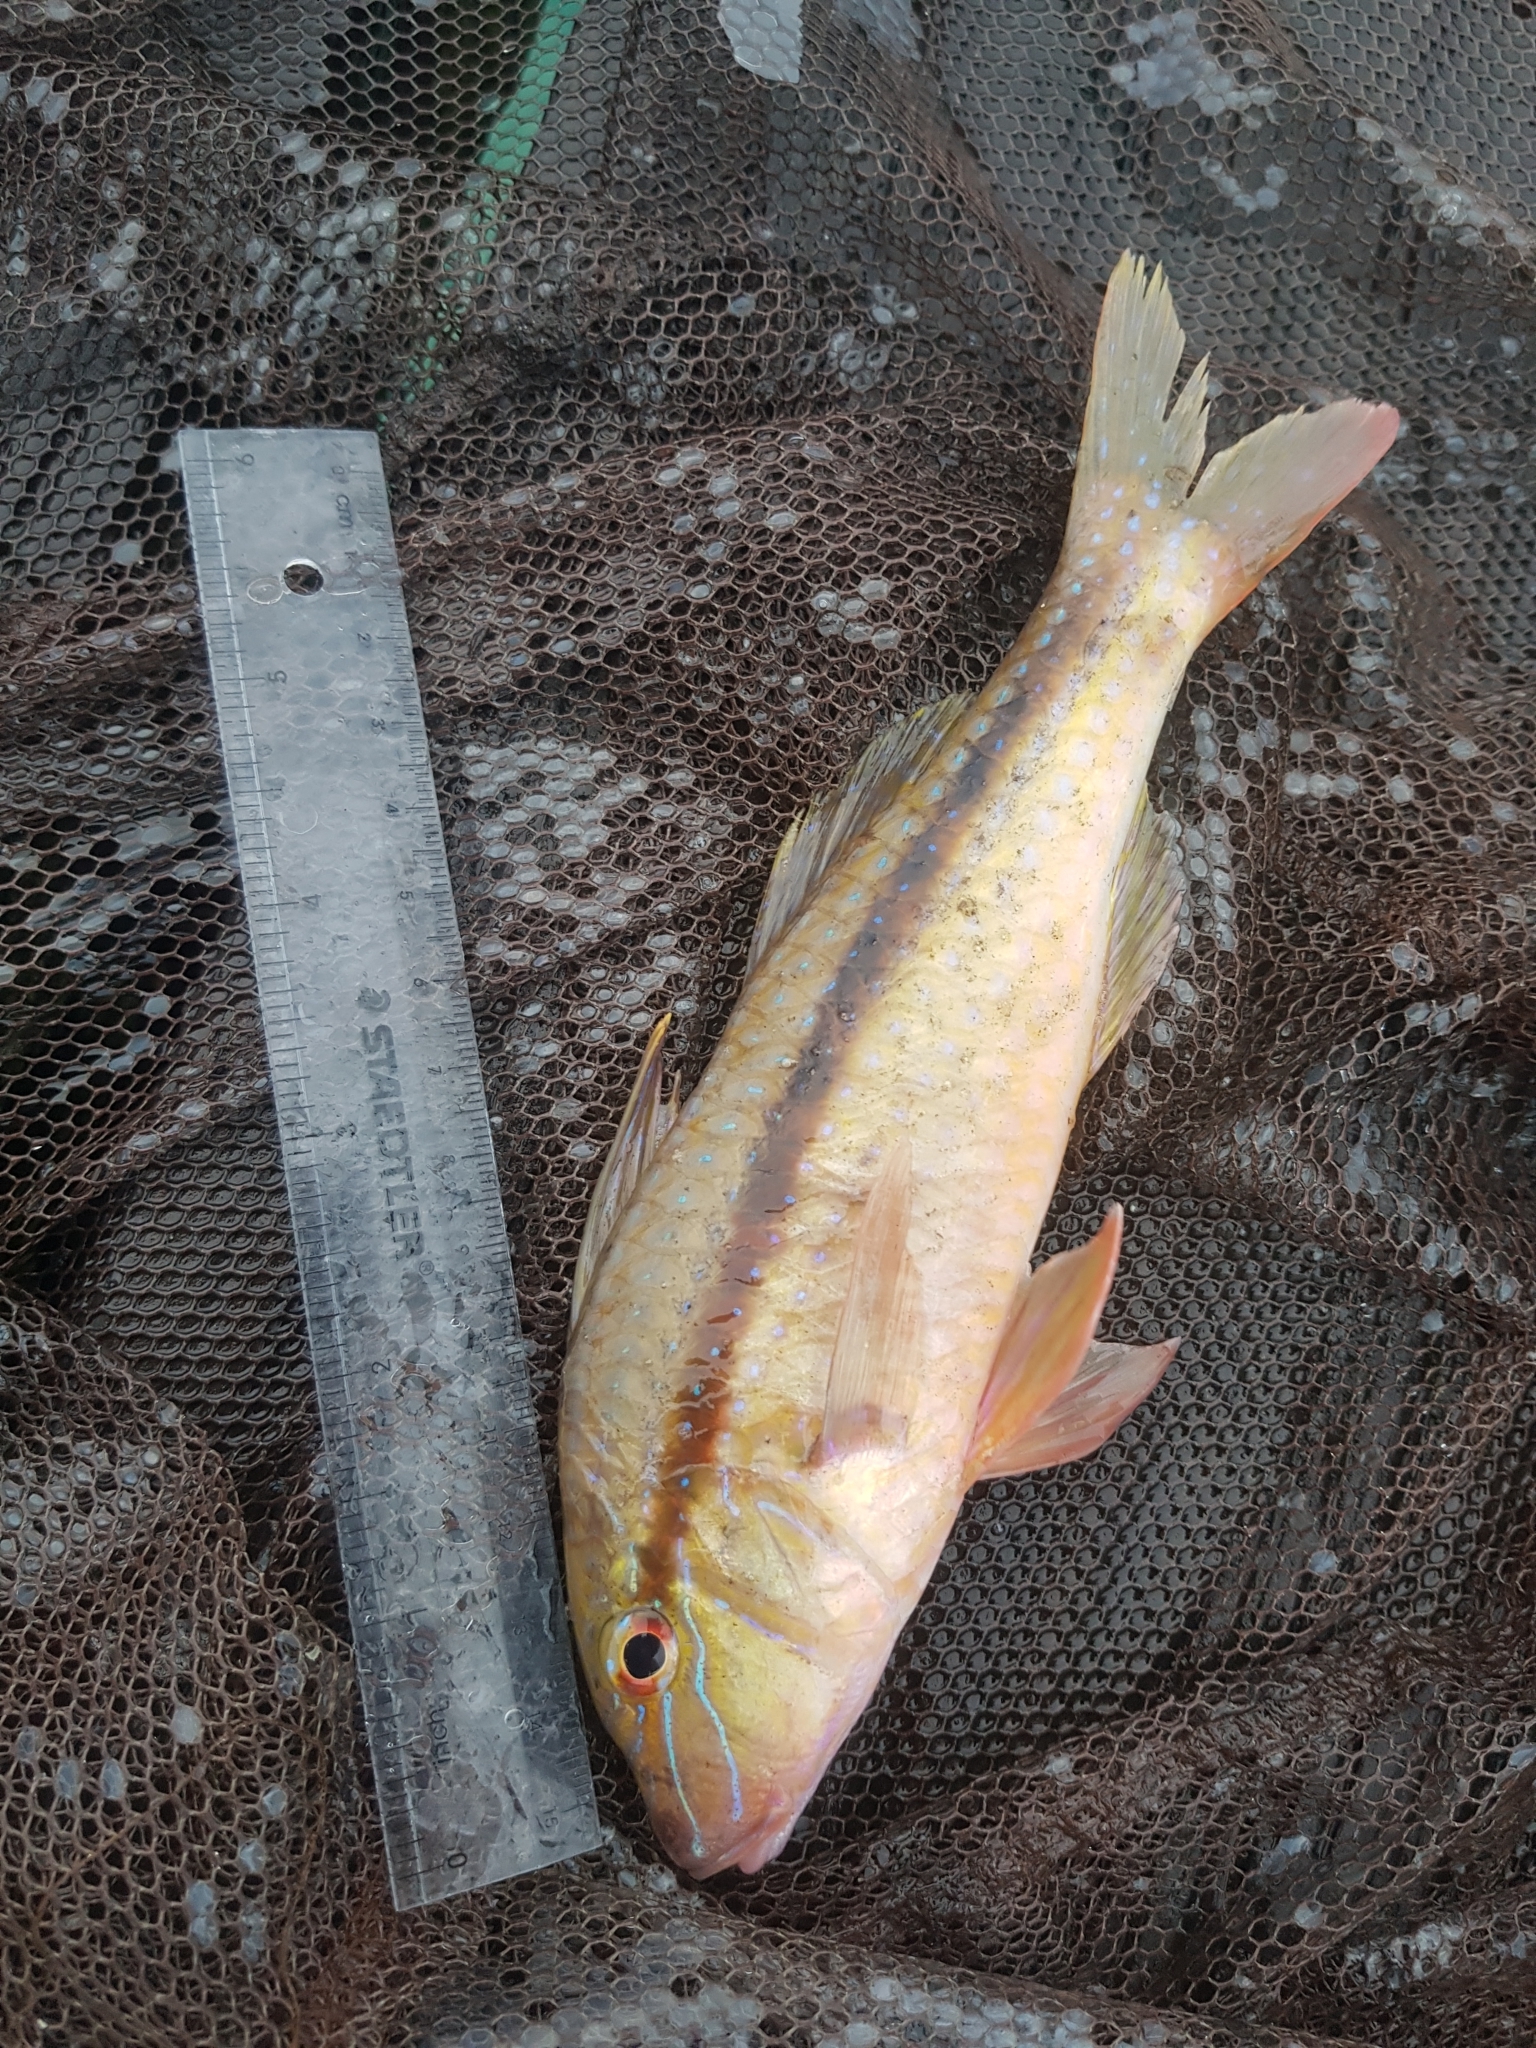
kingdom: Animalia
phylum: Chordata
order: Perciformes
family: Mullidae
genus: Upeneichthys
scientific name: Upeneichthys vlamingii
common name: Red mullet
